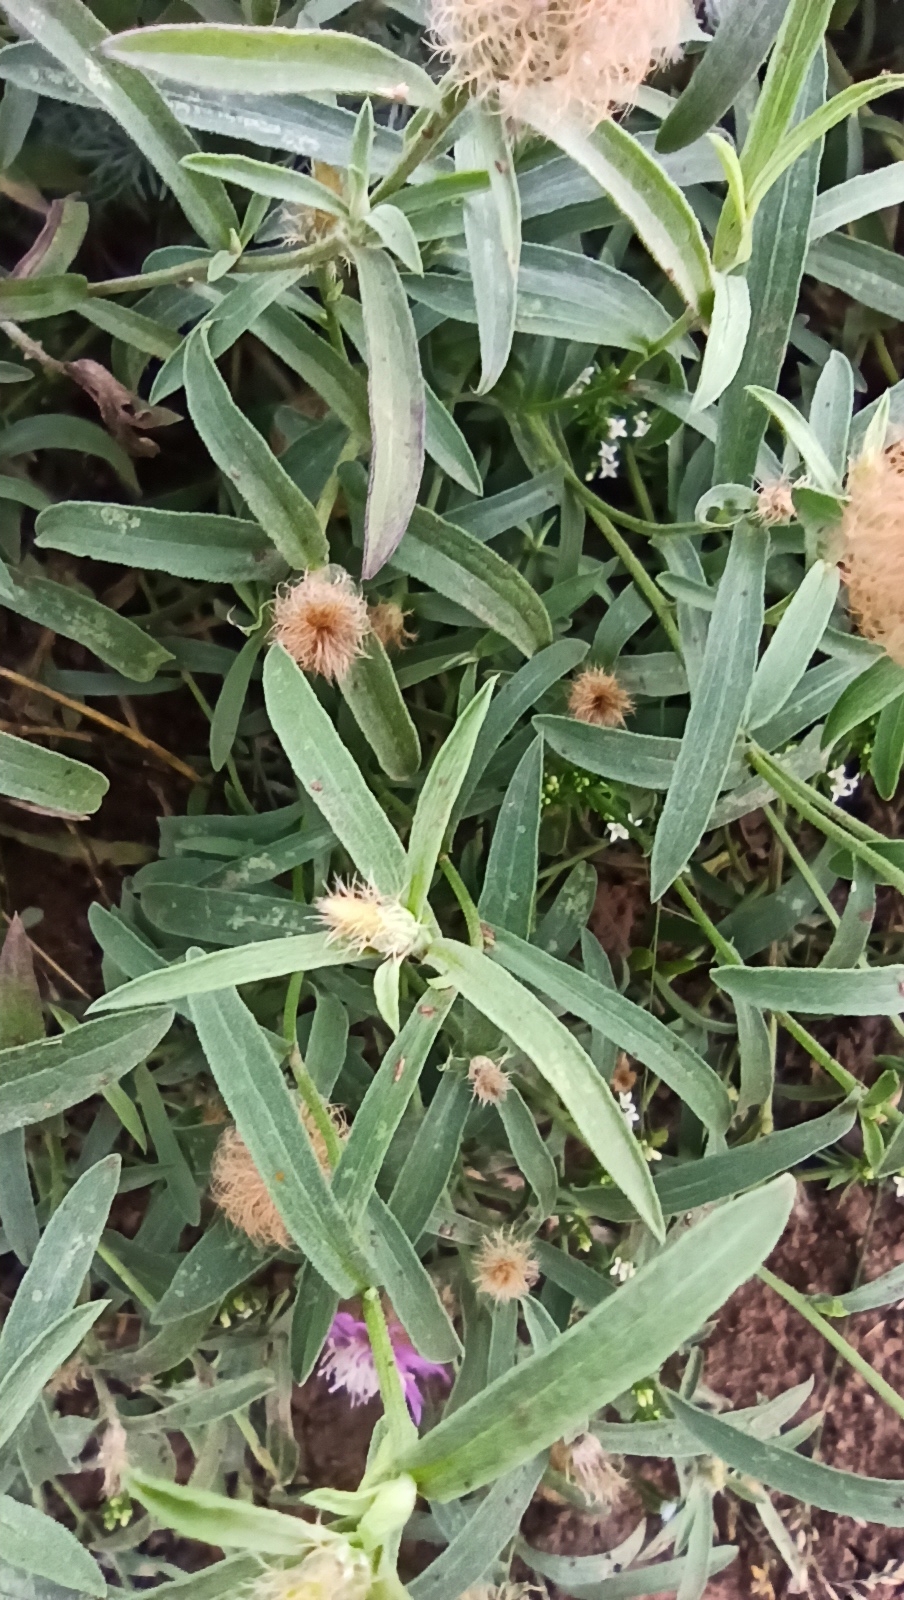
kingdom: Plantae
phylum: Tracheophyta
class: Magnoliopsida
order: Asterales
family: Asteraceae
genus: Centaurea
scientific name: Centaurea trichocephala
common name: Feather-head knapweed
